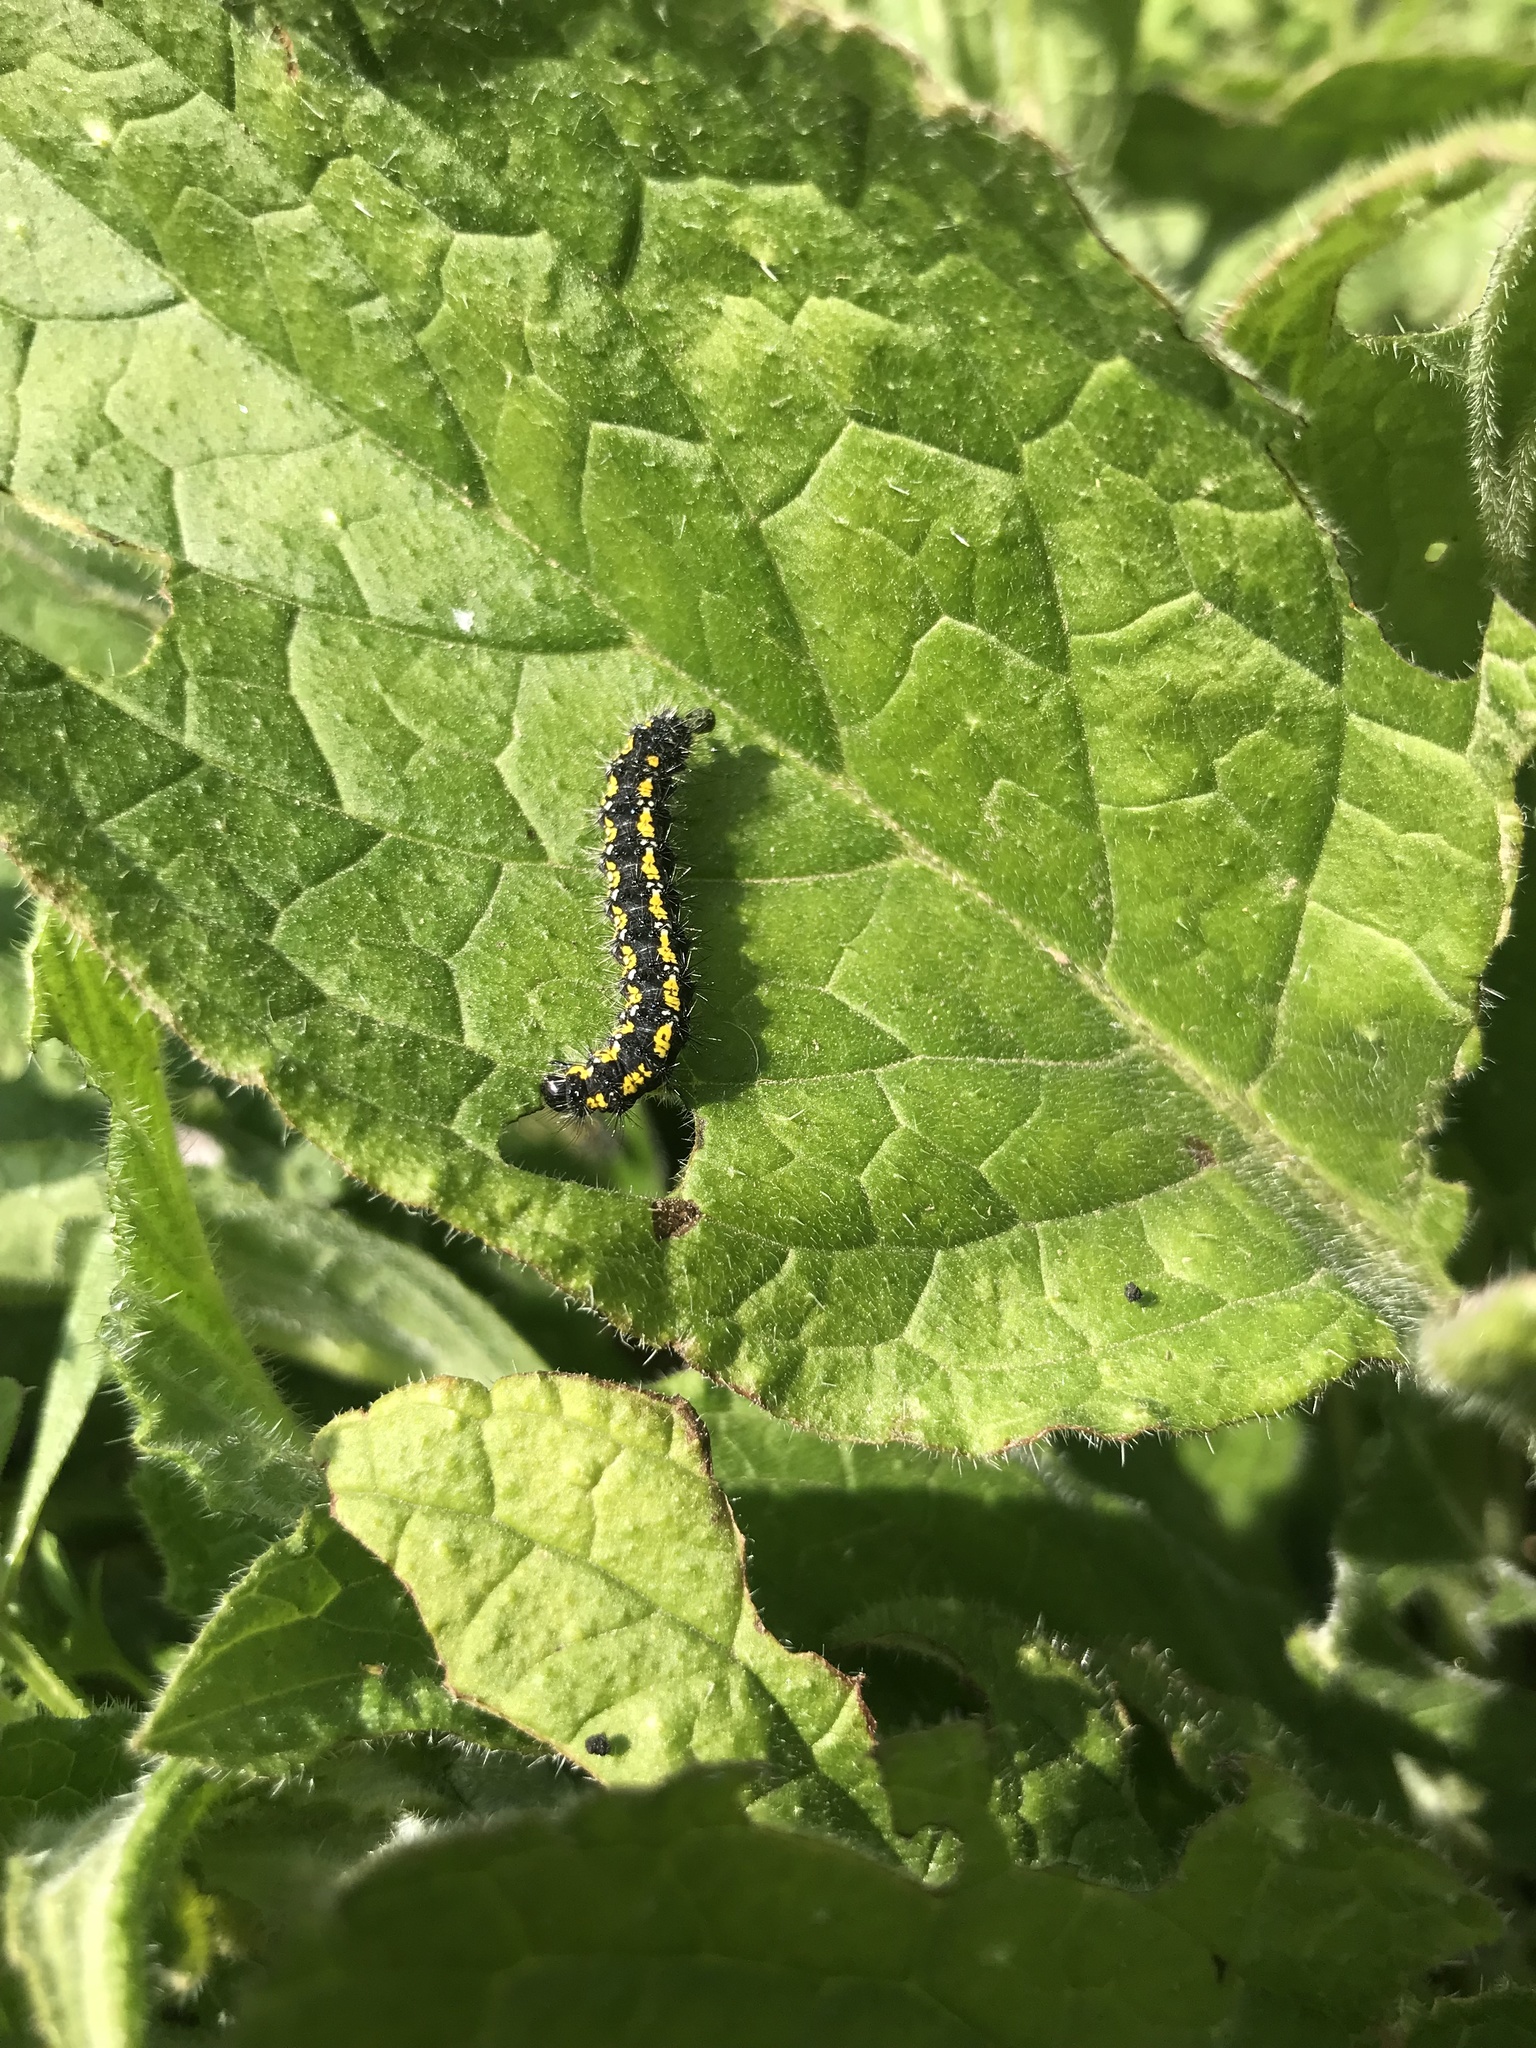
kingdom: Animalia
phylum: Arthropoda
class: Insecta
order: Lepidoptera
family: Erebidae
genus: Callimorpha
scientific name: Callimorpha dominula
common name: Scarlet tiger
